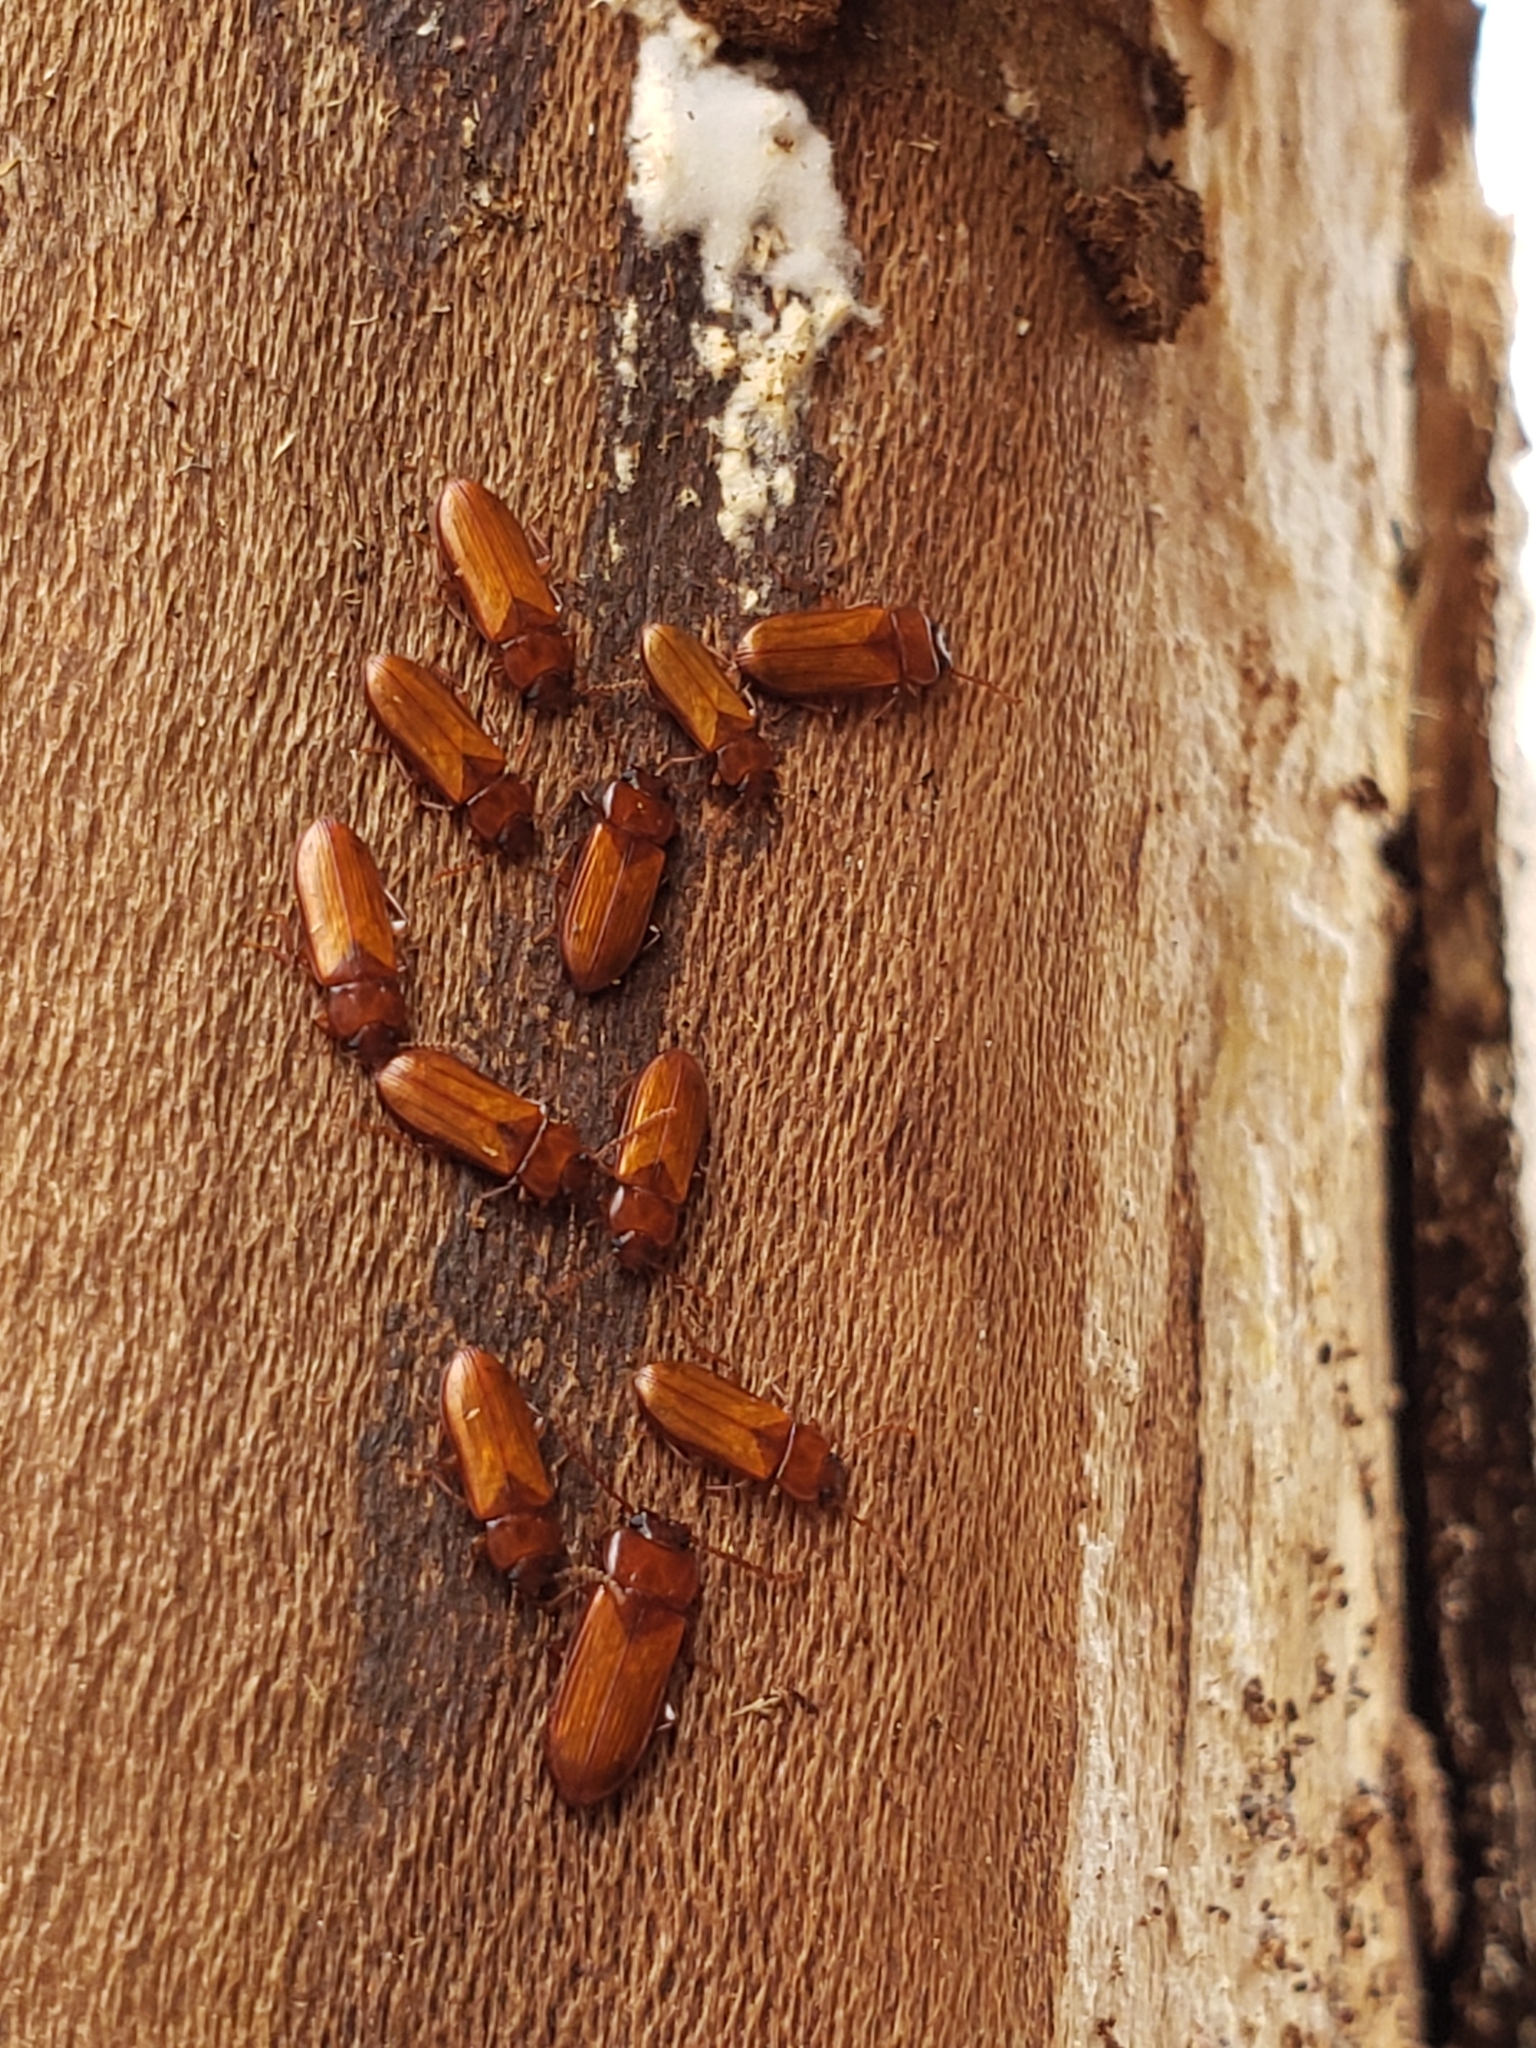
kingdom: Animalia
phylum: Arthropoda
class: Insecta
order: Coleoptera
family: Tenebrionidae
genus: Adelina
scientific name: Adelina pallida
